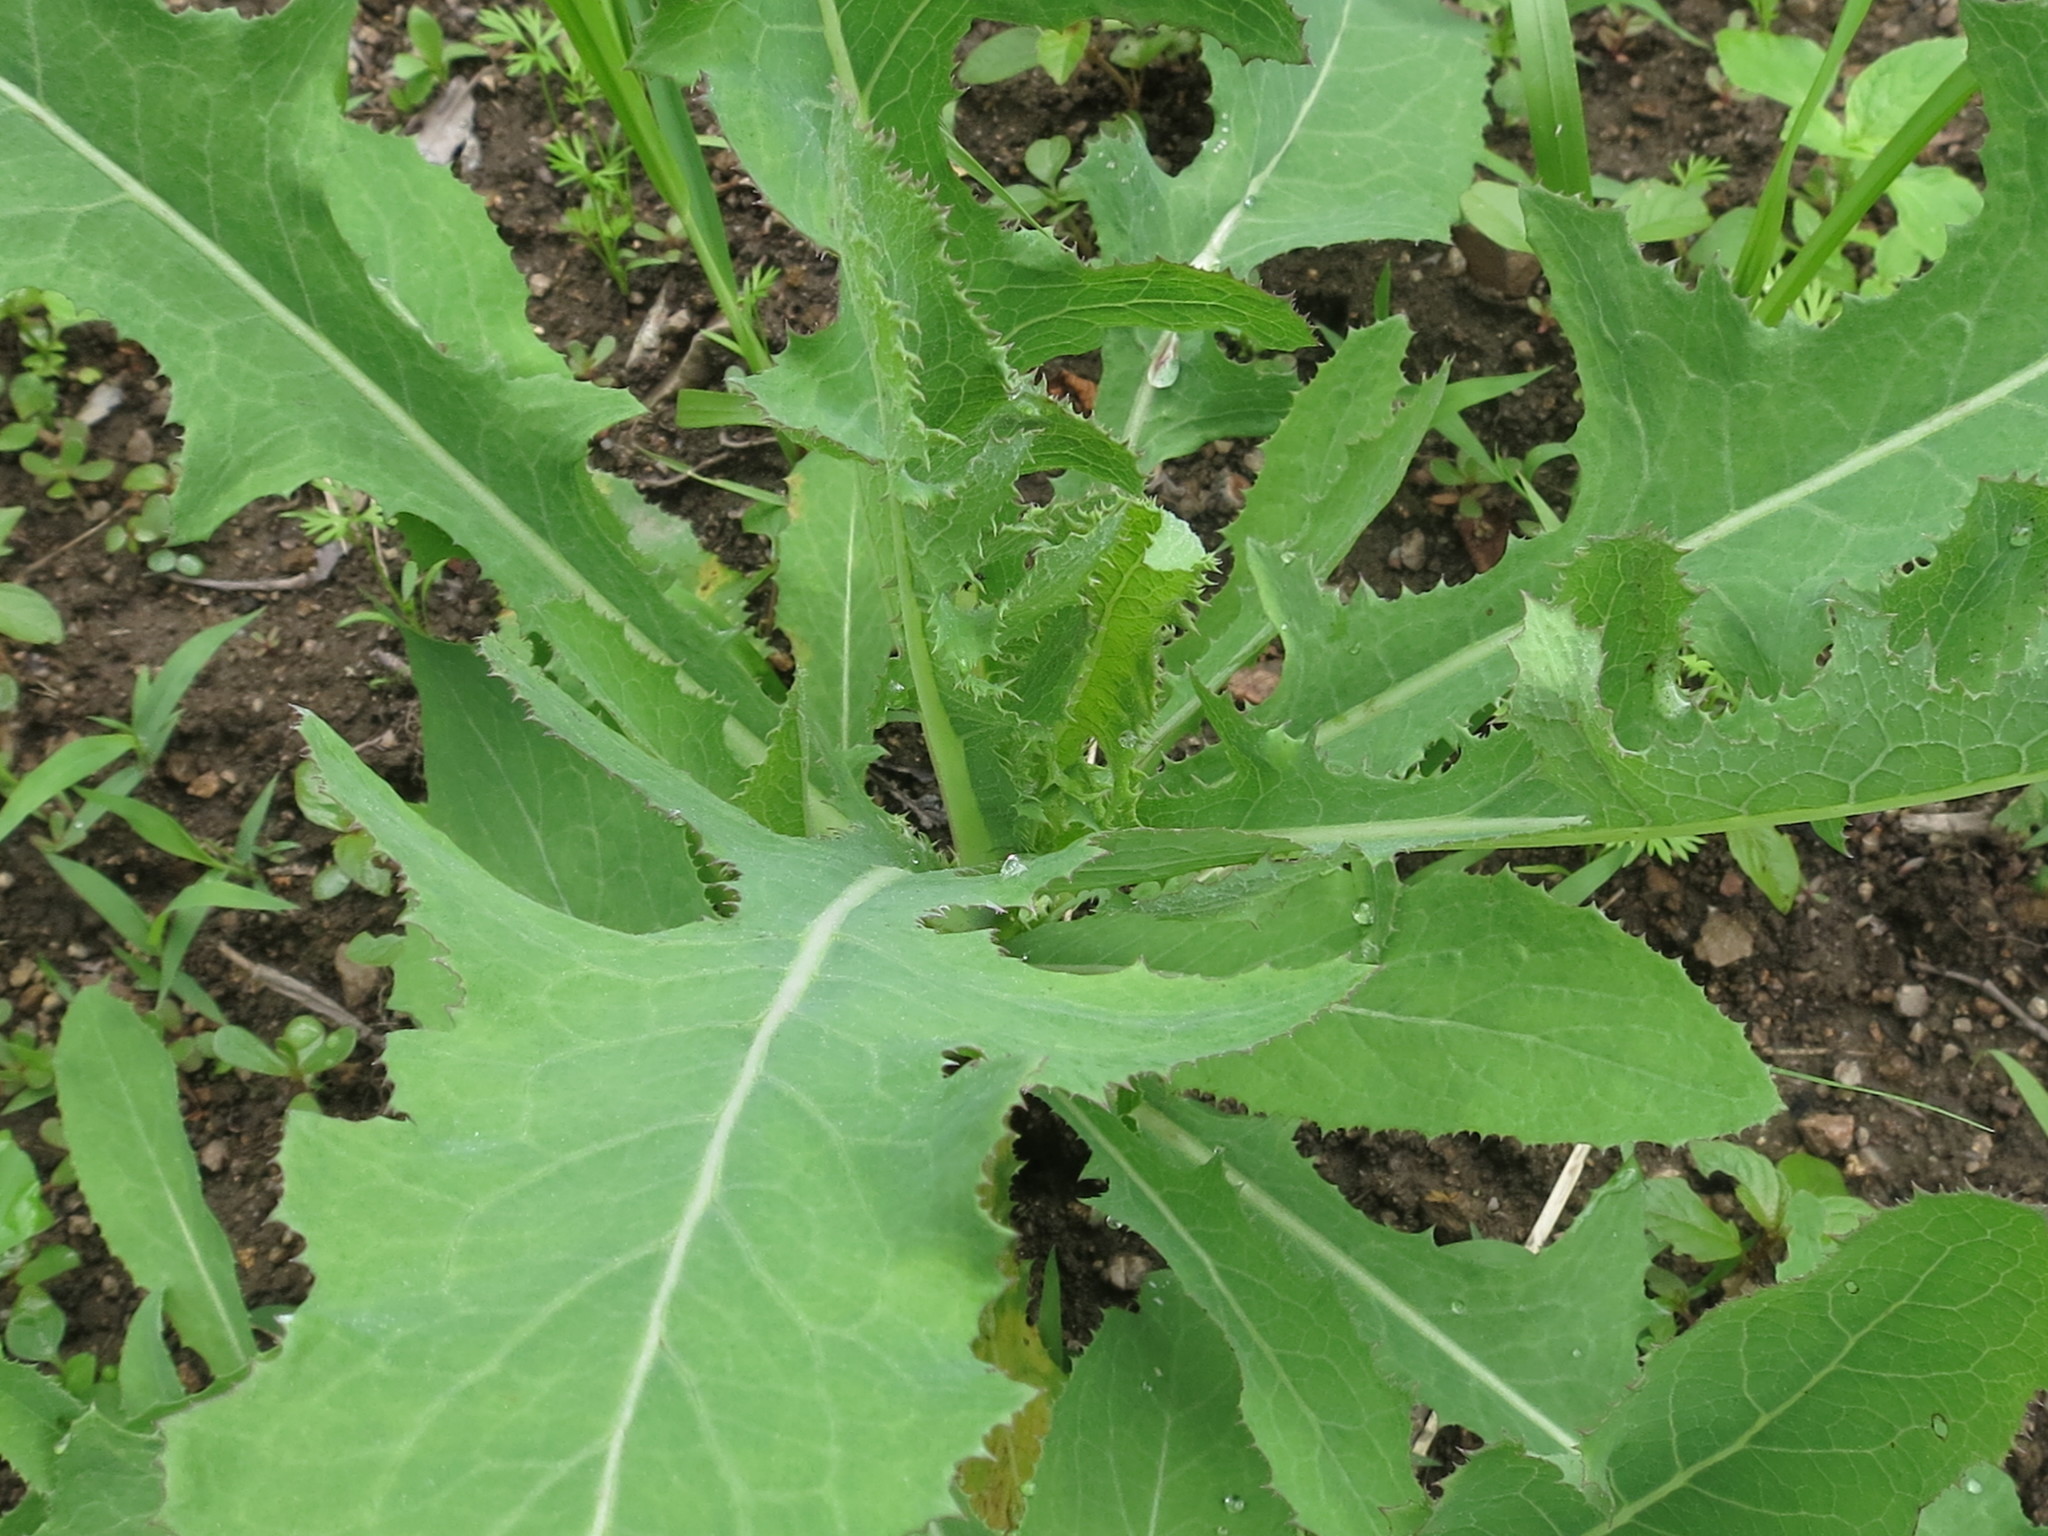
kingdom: Plantae
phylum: Tracheophyta
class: Magnoliopsida
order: Asterales
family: Asteraceae
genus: Sonchus
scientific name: Sonchus arvensis
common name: Perennial sow-thistle
